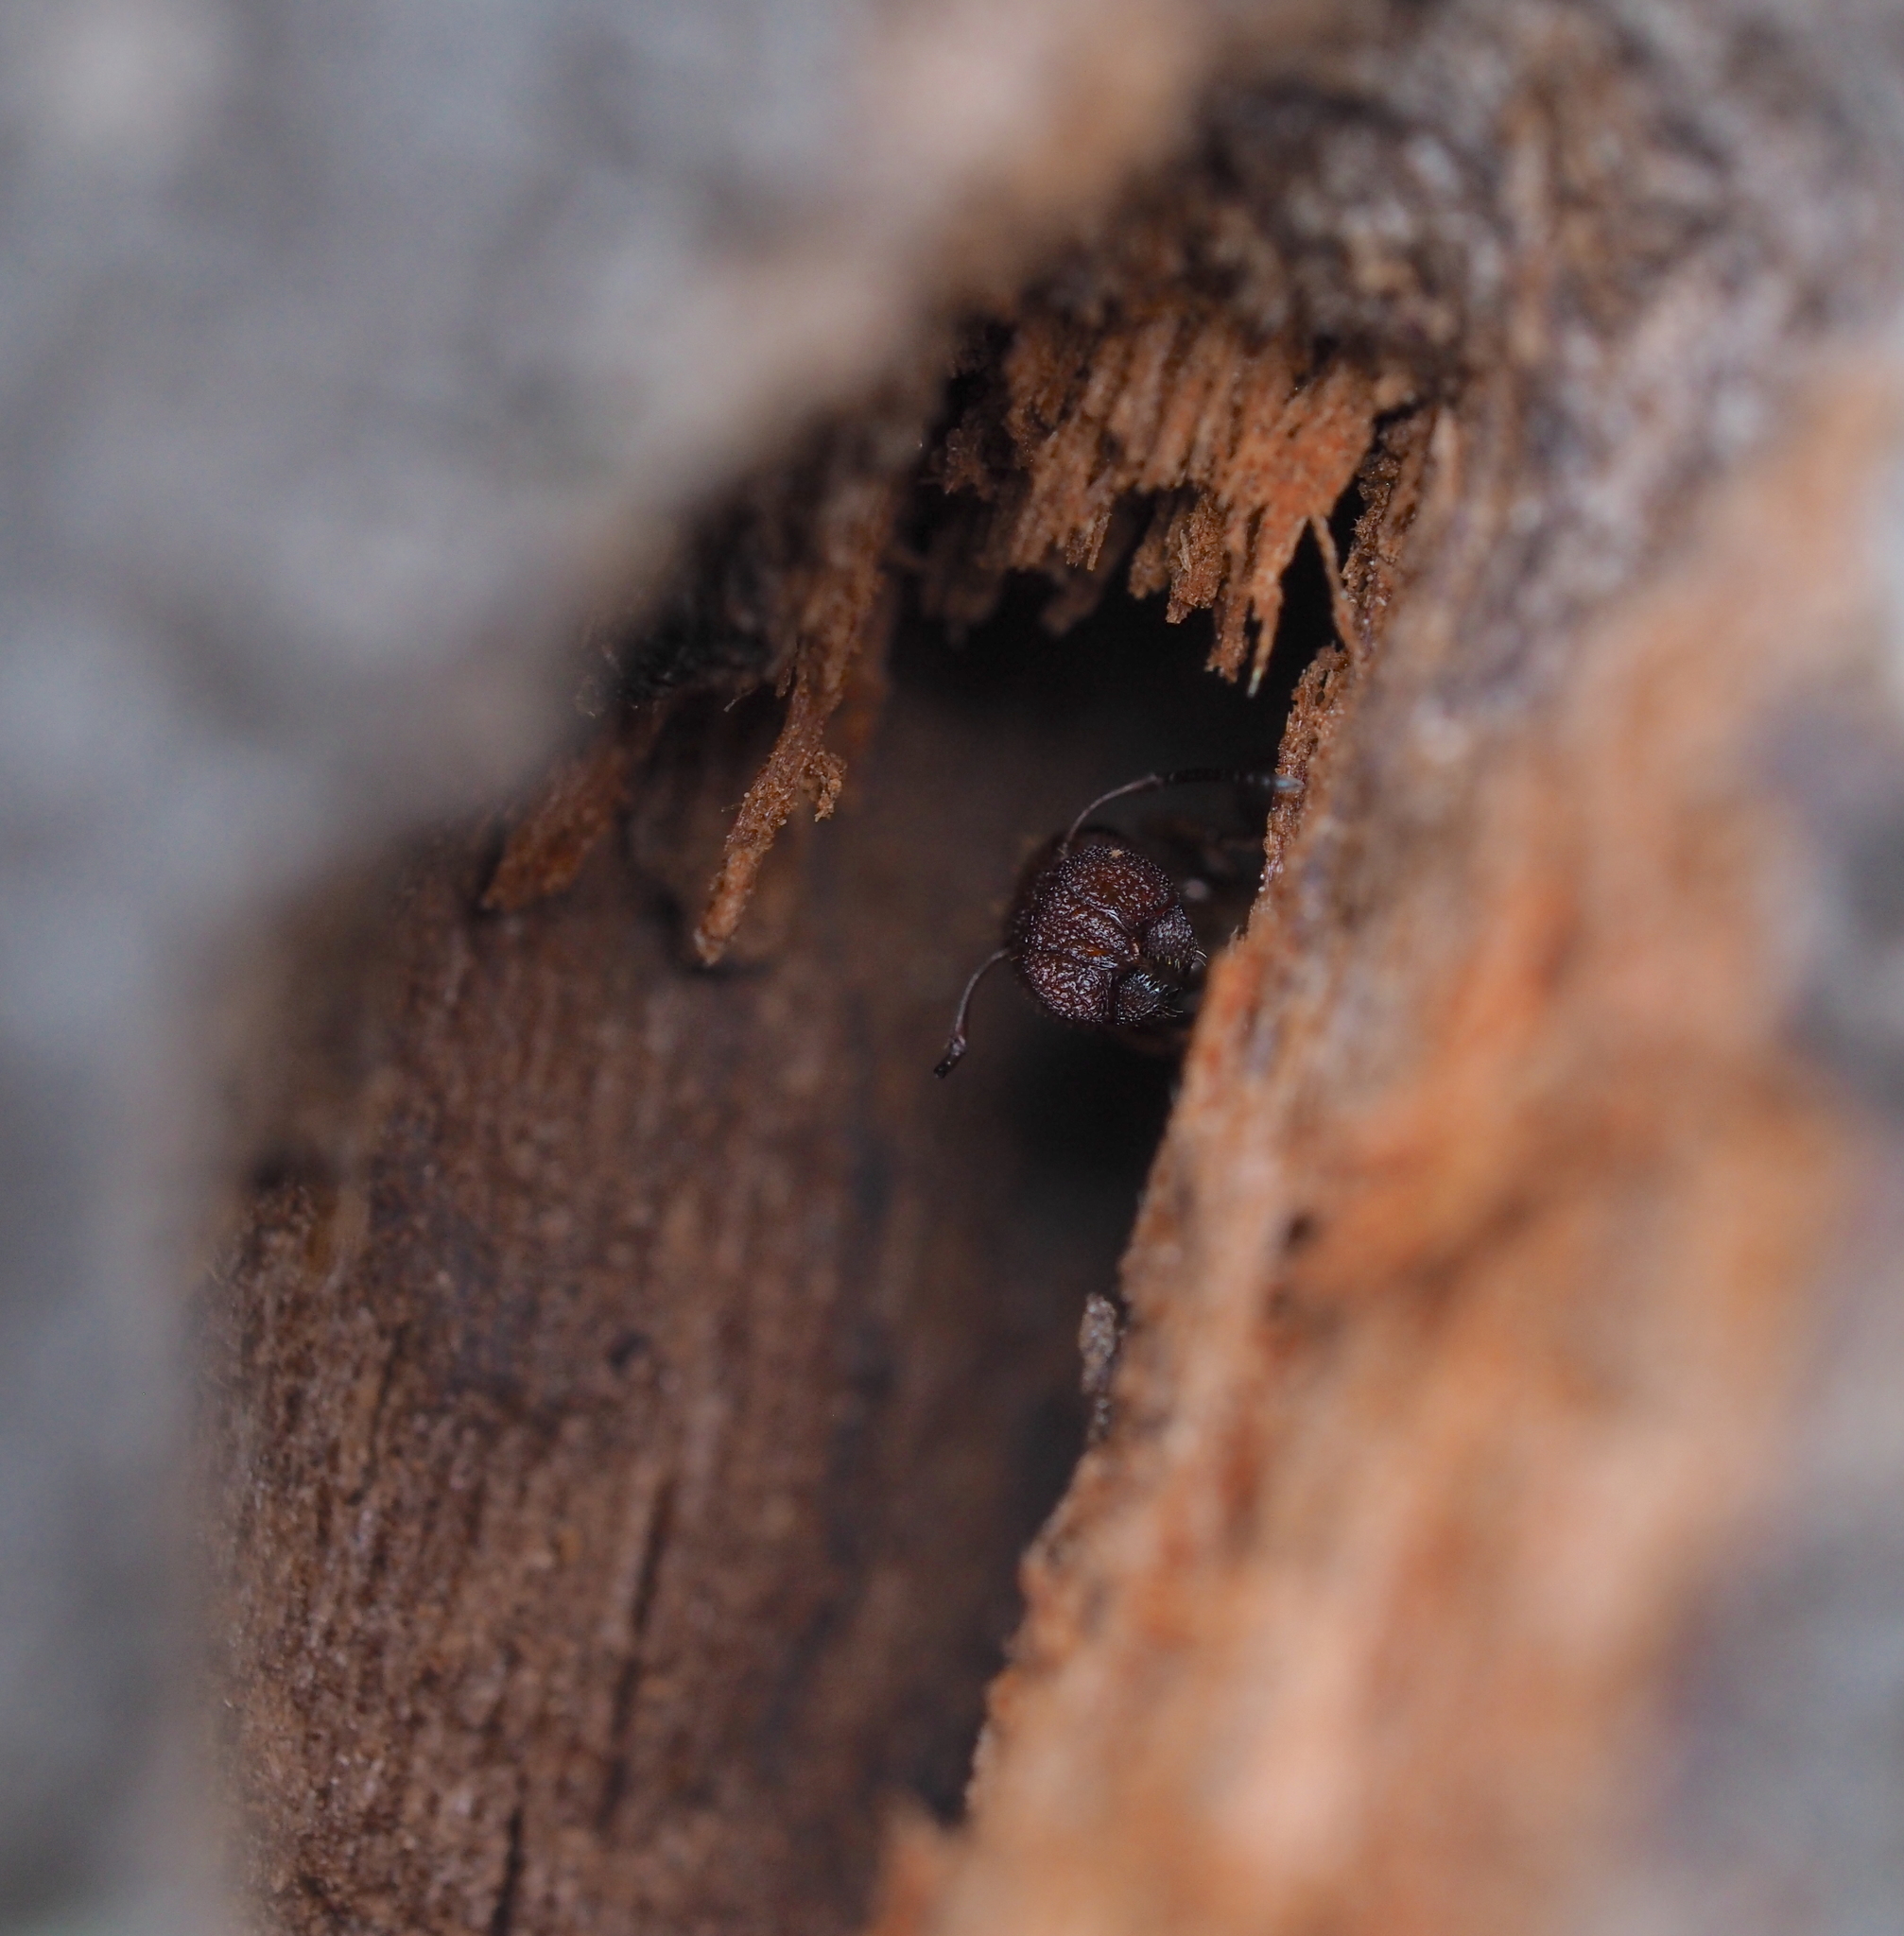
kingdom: Animalia
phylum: Arthropoda
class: Insecta
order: Hymenoptera
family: Formicidae
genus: Camponotus
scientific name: Camponotus truncatus
